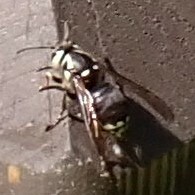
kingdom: Animalia
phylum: Arthropoda
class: Insecta
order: Hymenoptera
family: Vespidae
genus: Dolichovespula
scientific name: Dolichovespula maculata
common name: Bald-faced hornet
